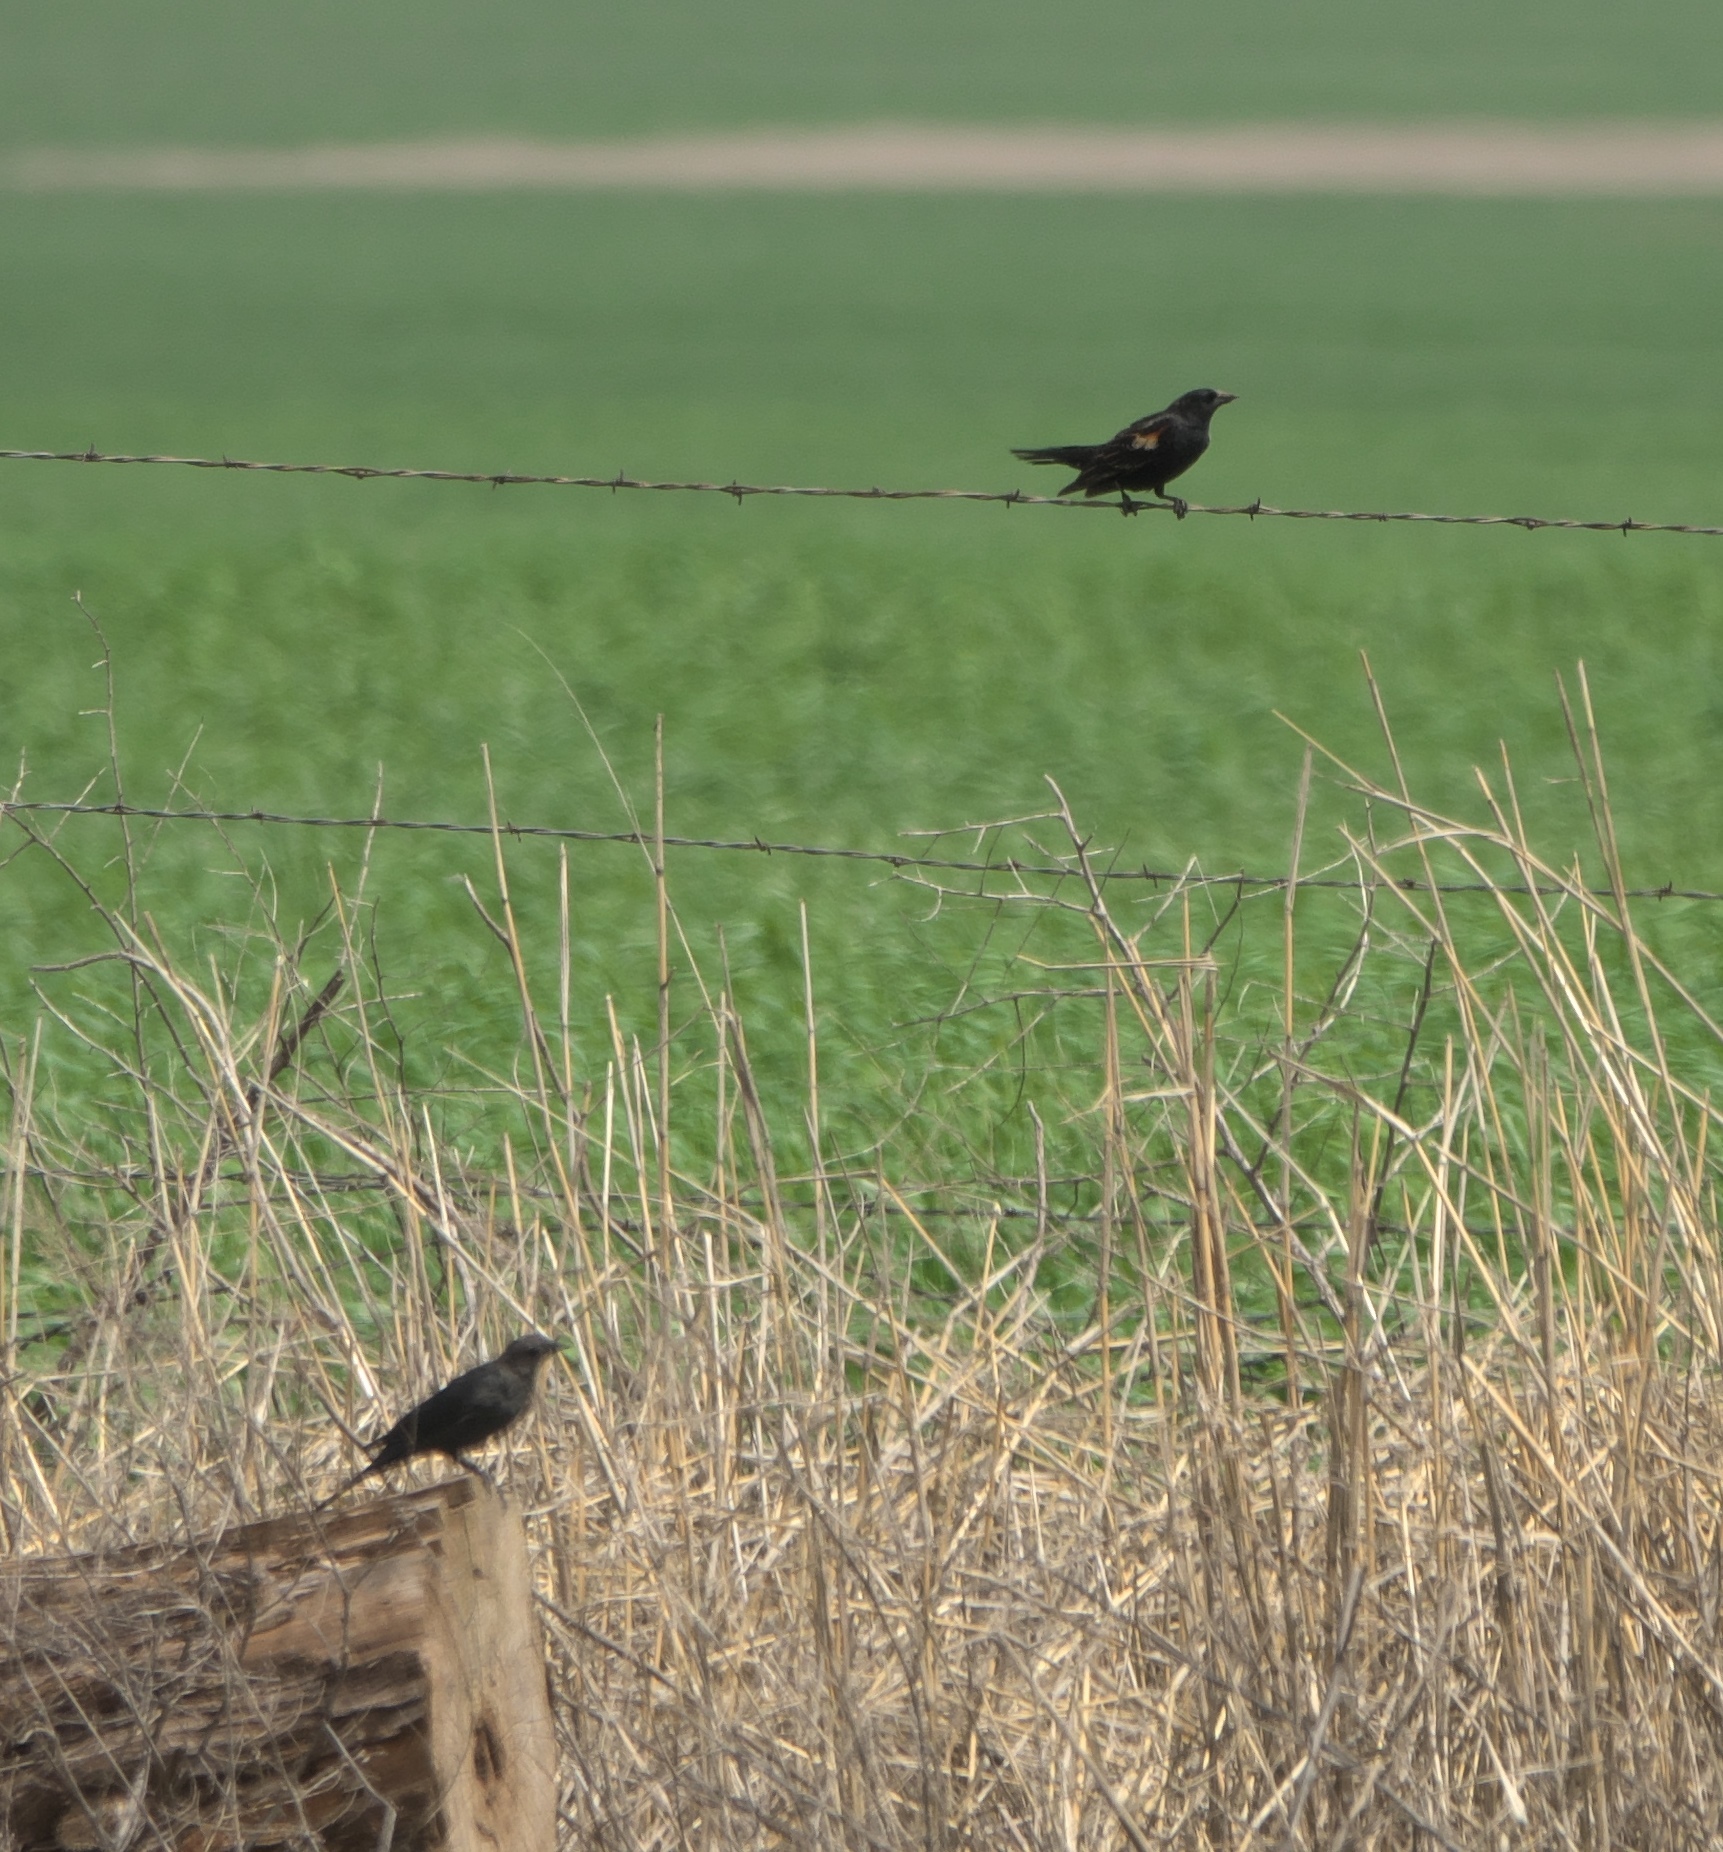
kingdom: Animalia
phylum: Chordata
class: Aves
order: Passeriformes
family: Icteridae
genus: Agelaius
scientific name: Agelaius phoeniceus
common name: Red-winged blackbird
